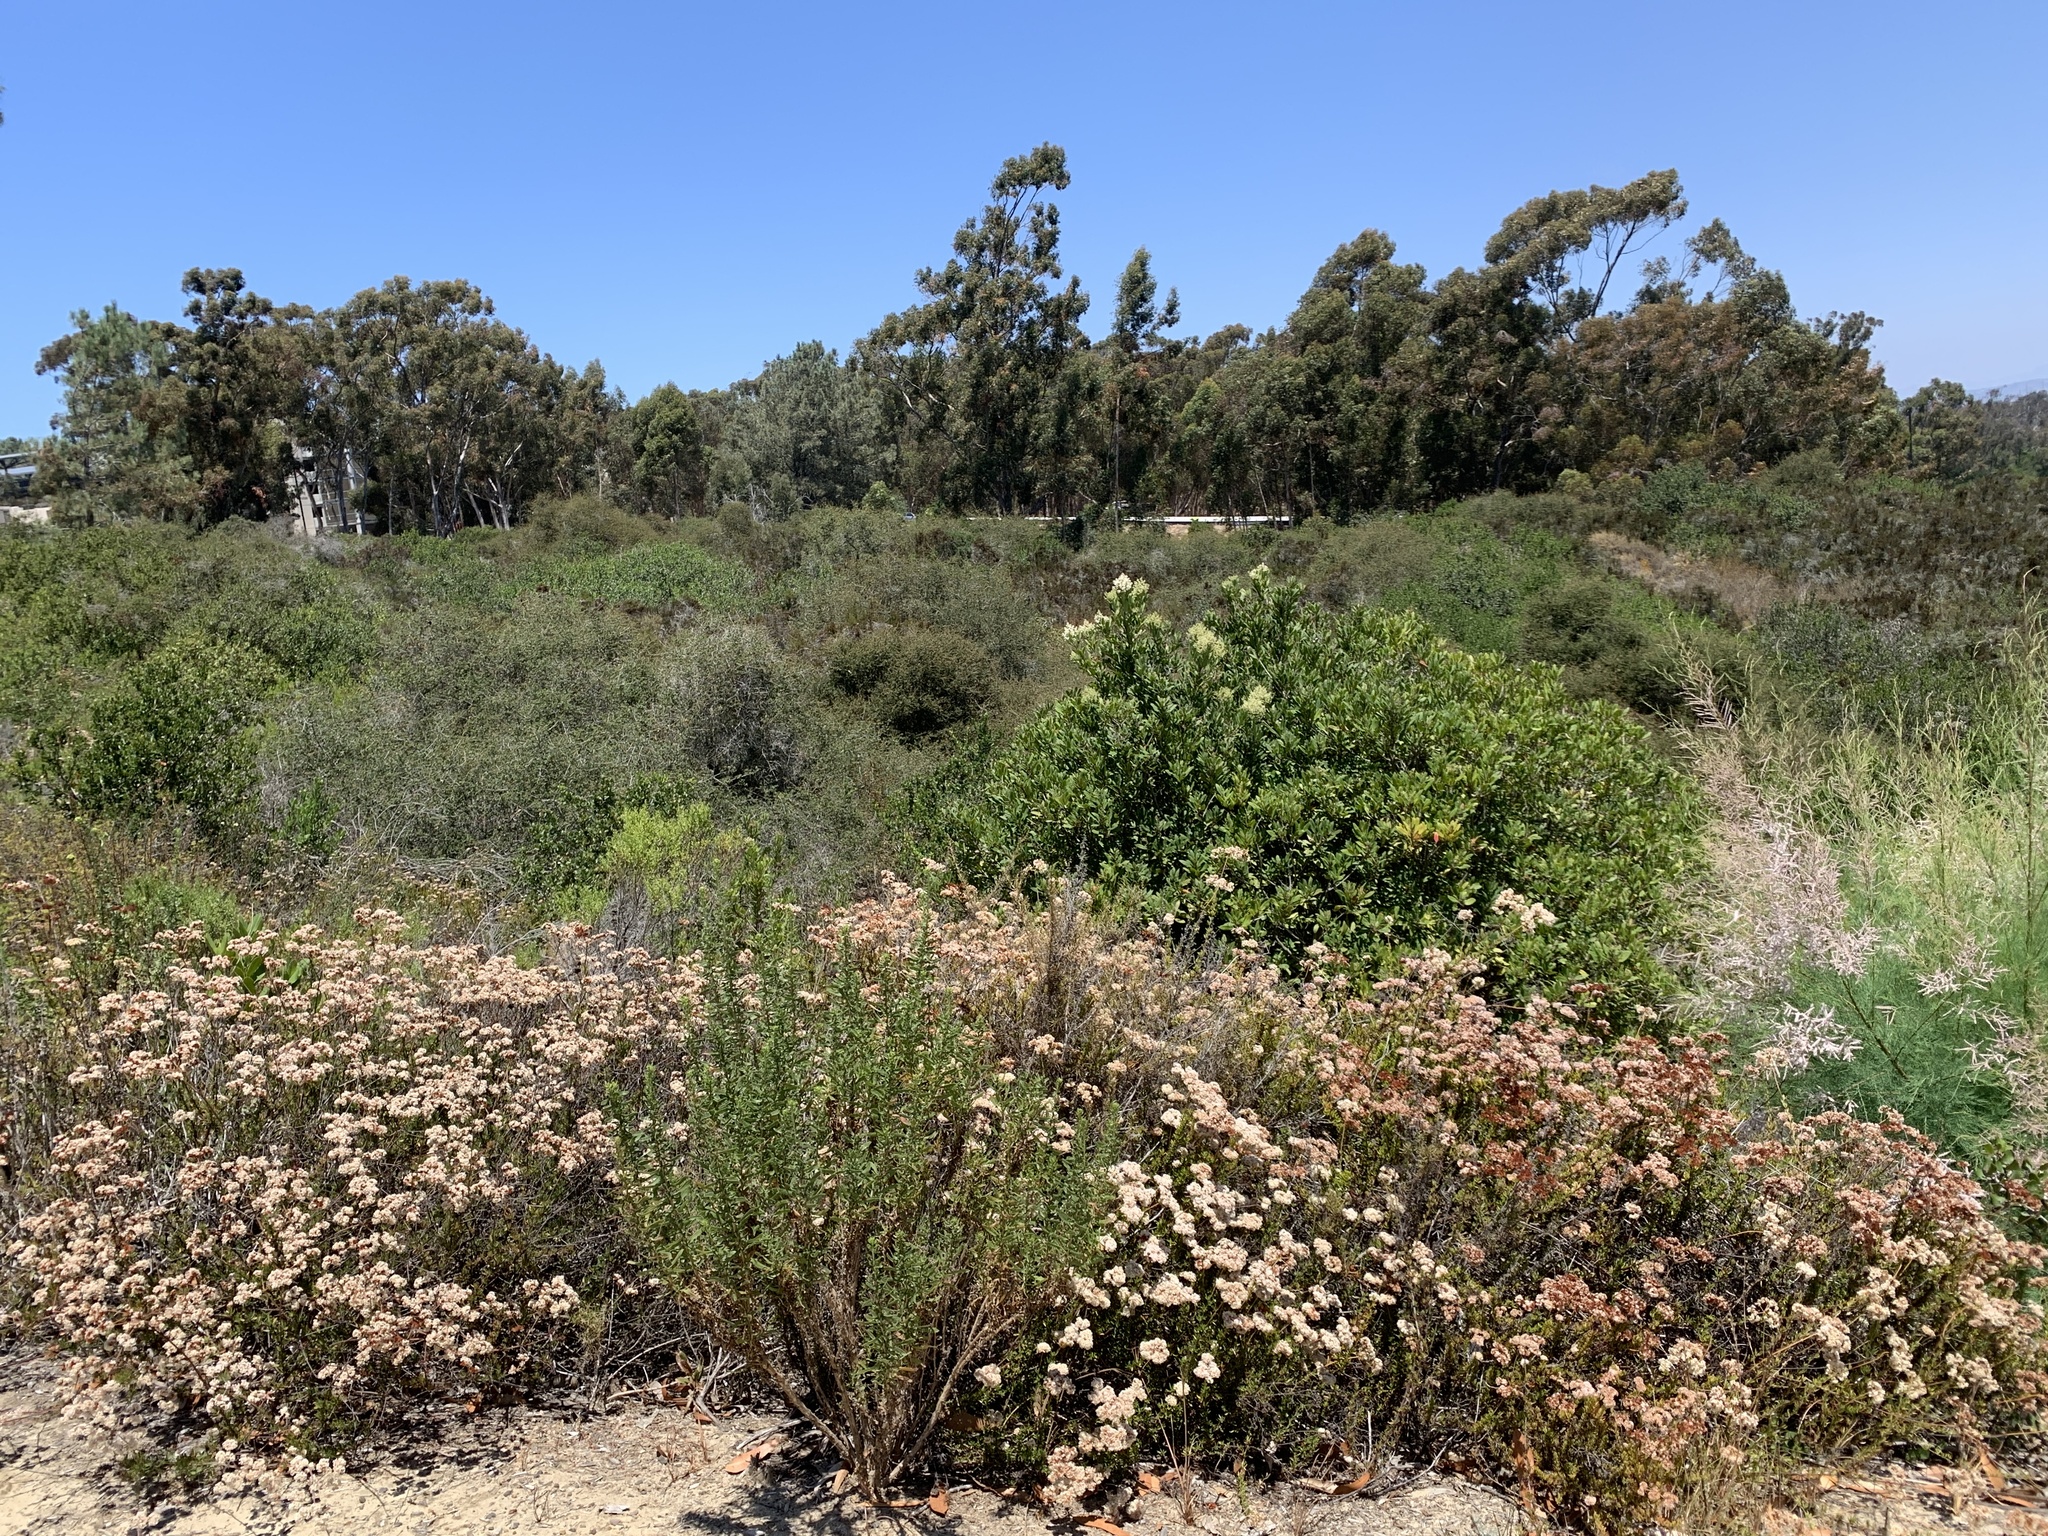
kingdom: Plantae
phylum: Tracheophyta
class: Magnoliopsida
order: Caryophyllales
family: Polygonaceae
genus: Eriogonum
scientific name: Eriogonum fasciculatum
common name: California wild buckwheat
